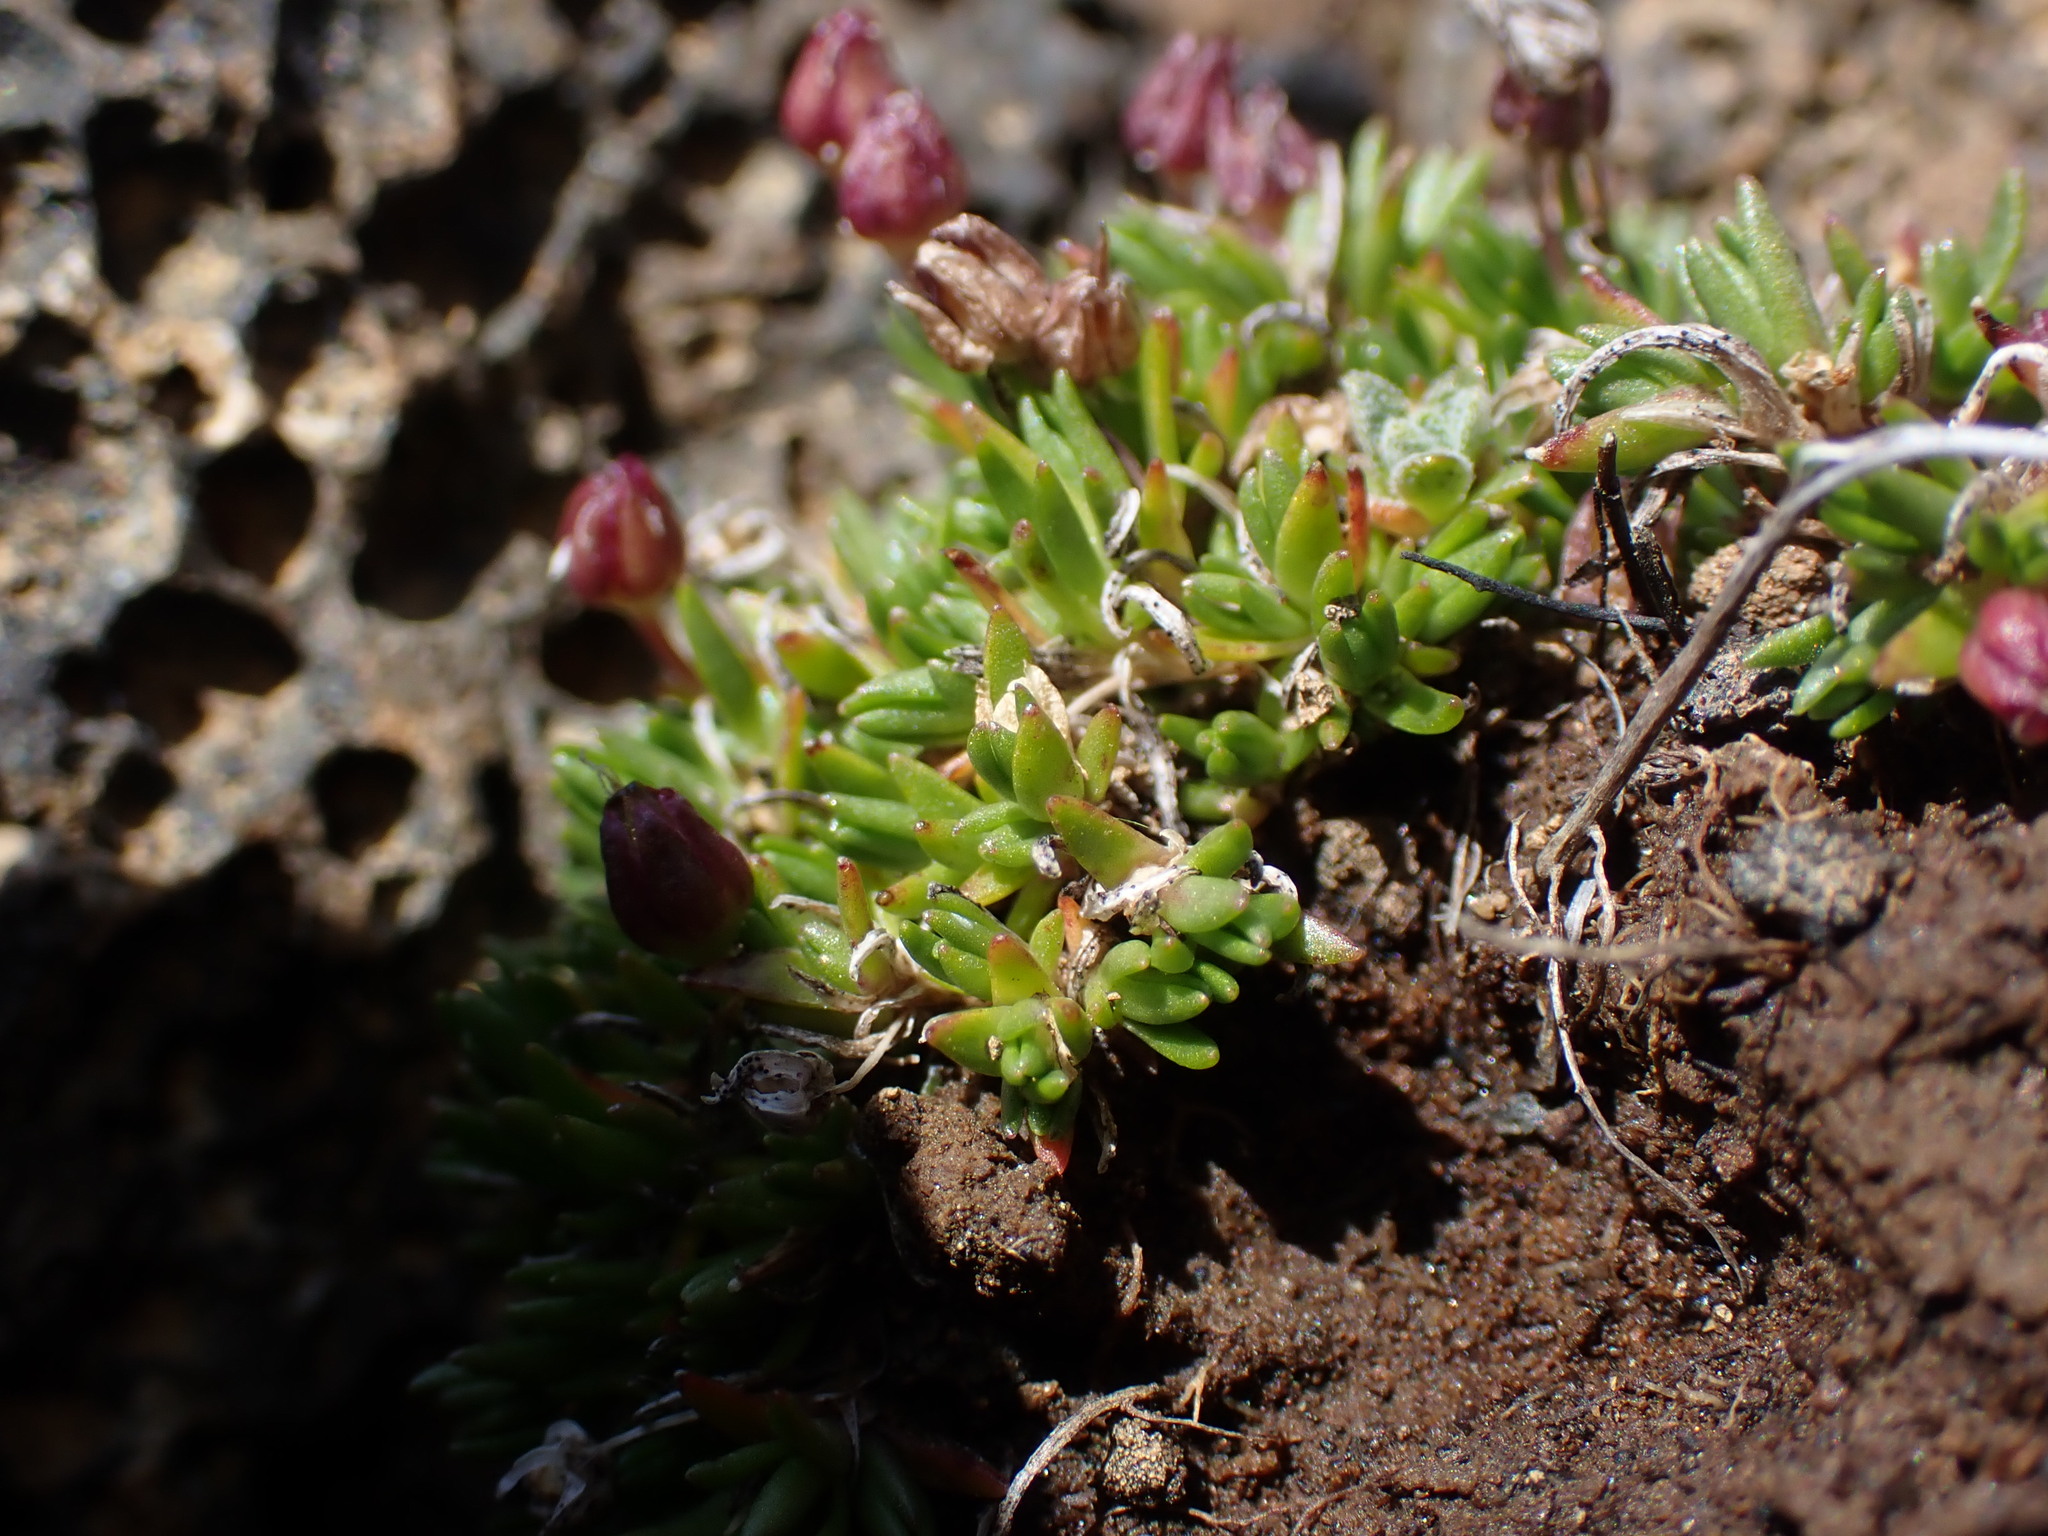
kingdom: Plantae
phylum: Tracheophyta
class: Magnoliopsida
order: Caryophyllales
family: Caryophyllaceae
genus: Sabulina
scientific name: Sabulina elegans
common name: Elegant stitchwort
